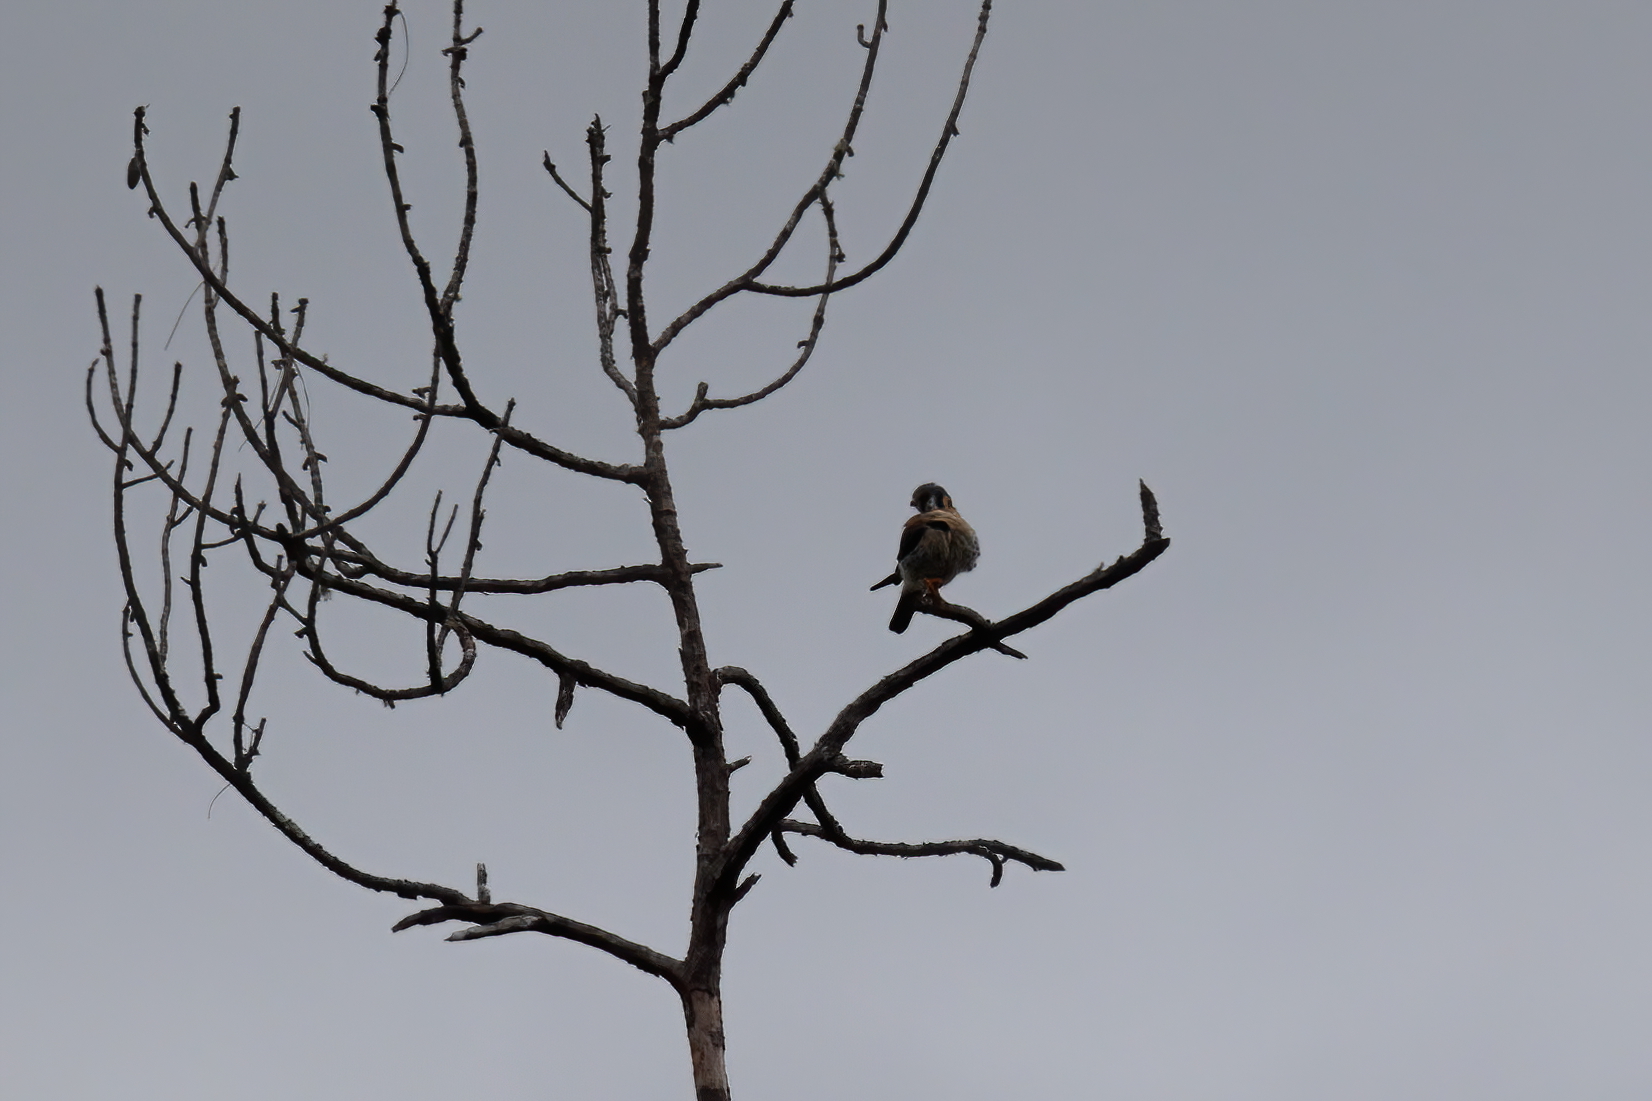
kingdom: Animalia
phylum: Chordata
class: Aves
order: Falconiformes
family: Falconidae
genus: Falco
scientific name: Falco sparverius
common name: American kestrel
